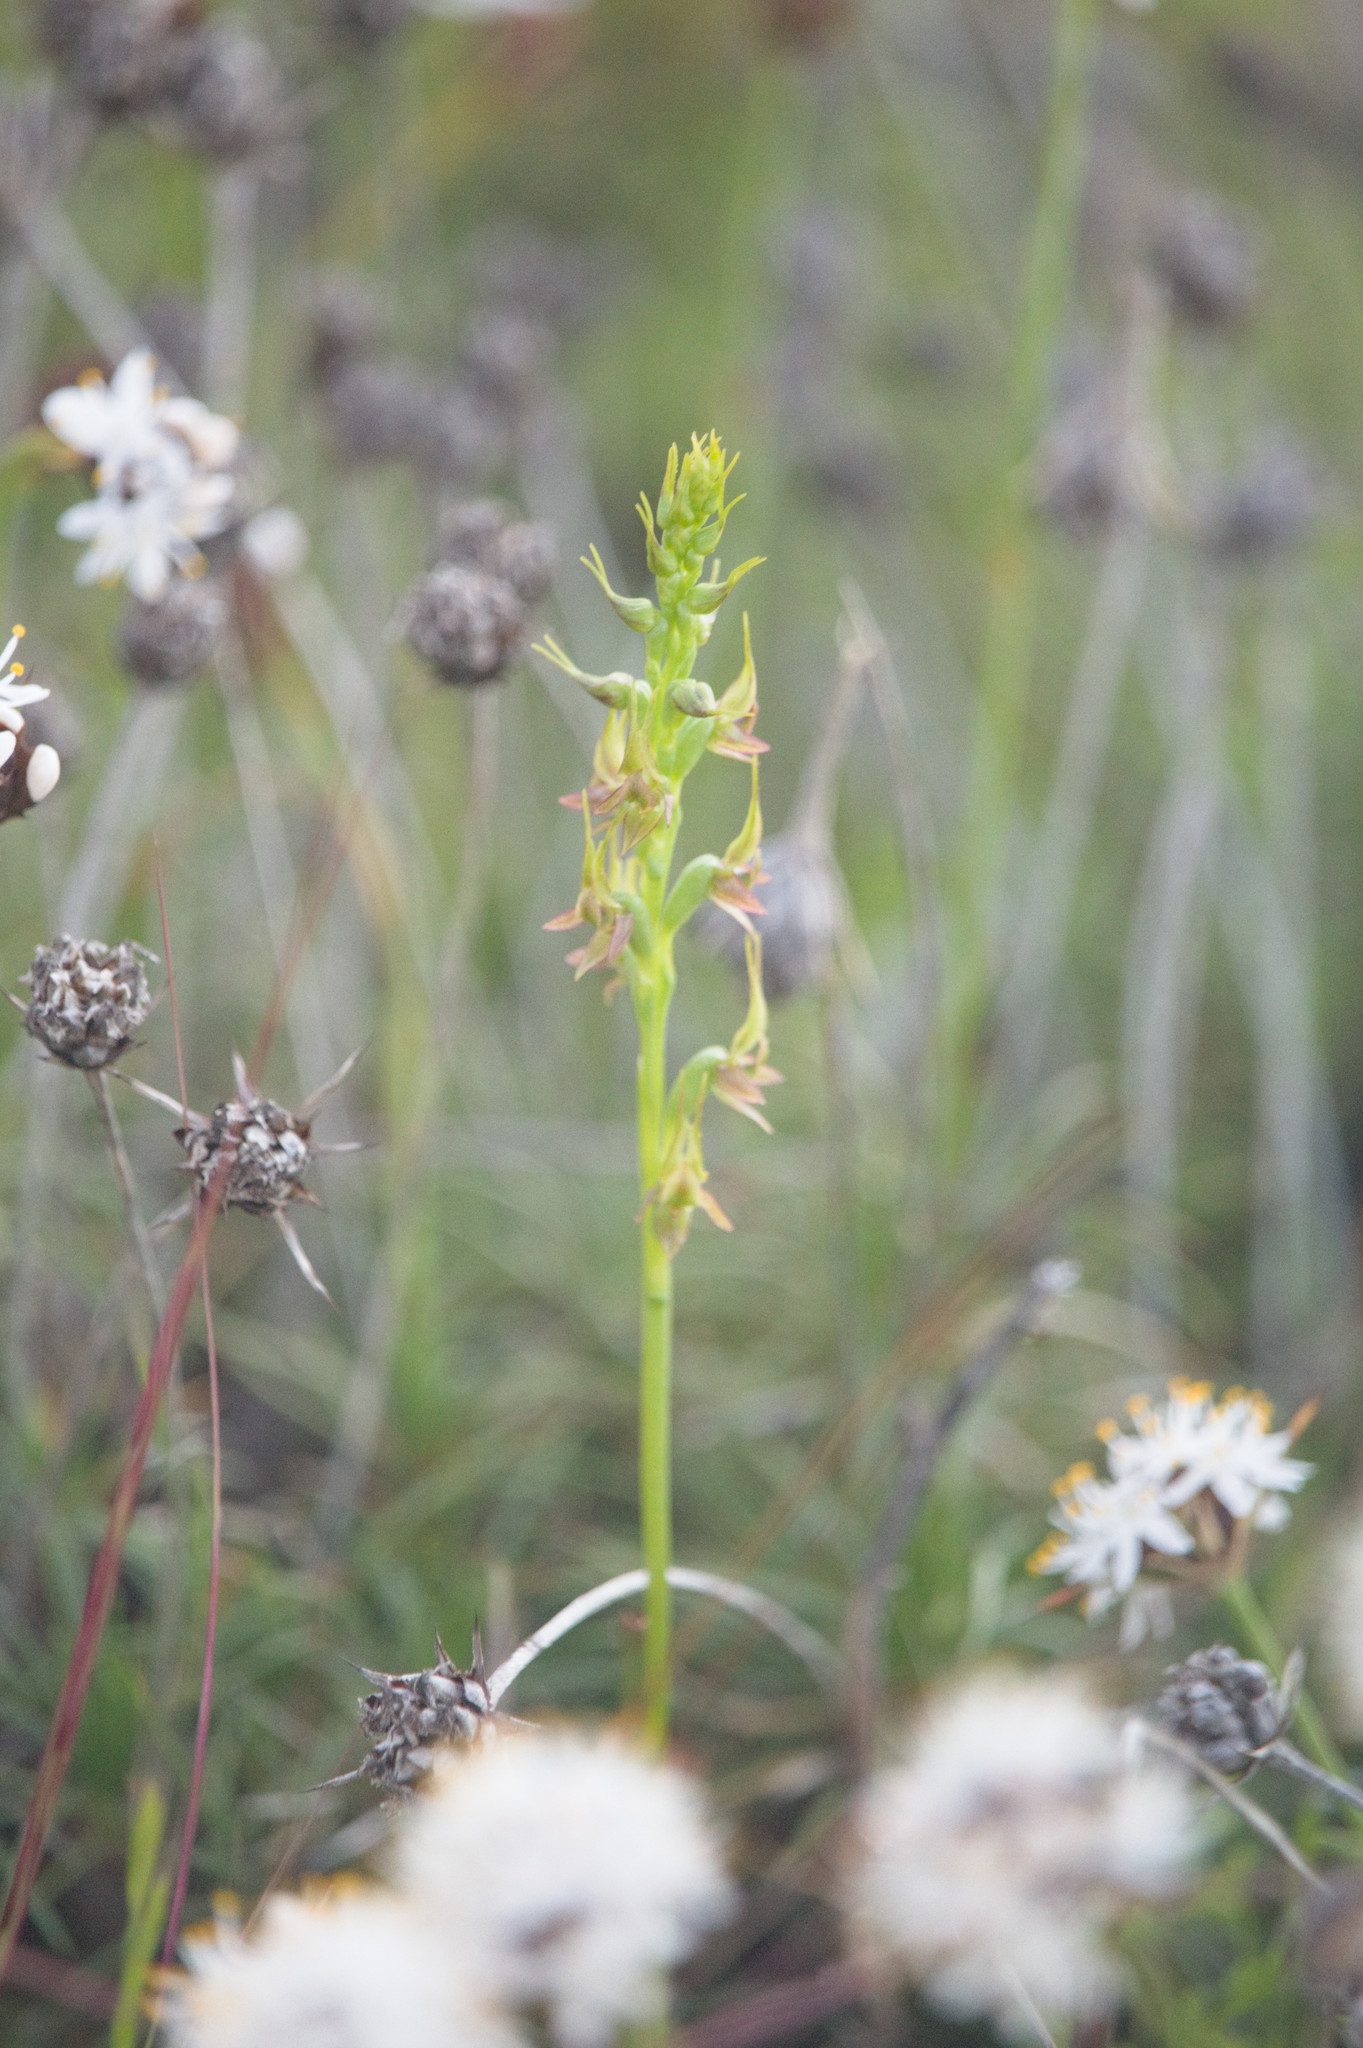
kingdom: Plantae
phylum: Tracheophyta
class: Liliopsida
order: Asparagales
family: Orchidaceae
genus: Prasophyllum
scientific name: Prasophyllum gracile
